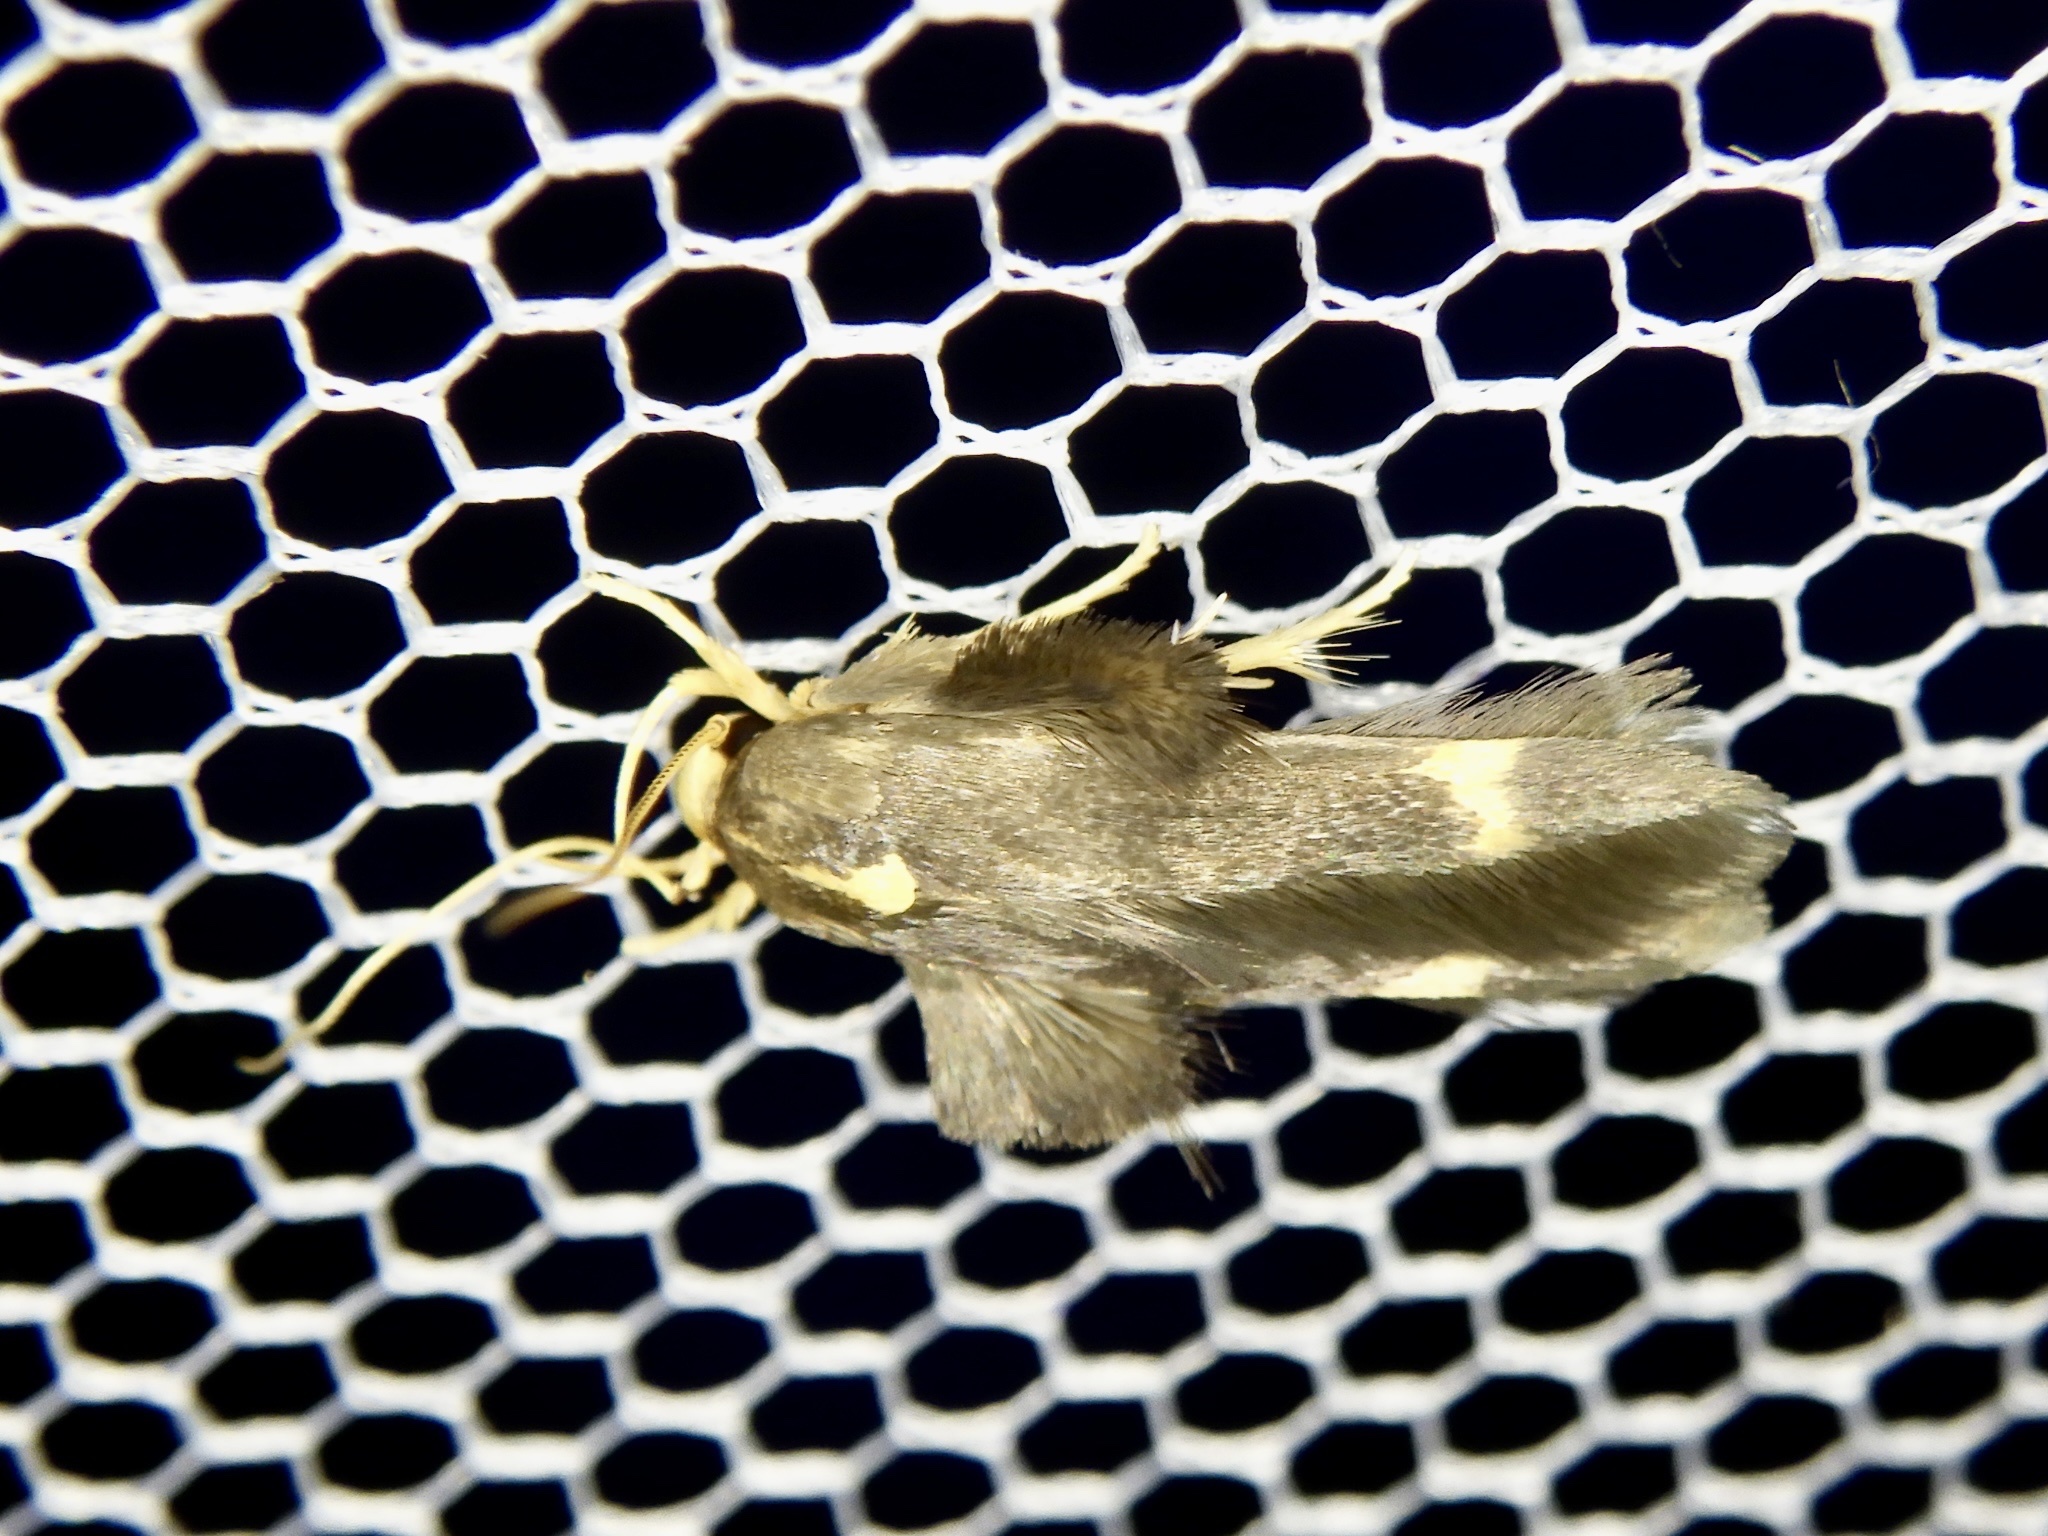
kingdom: Animalia
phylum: Arthropoda
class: Insecta
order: Lepidoptera
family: Stathmopodidae
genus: Stathmopoda
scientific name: Stathmopoda masinissa
